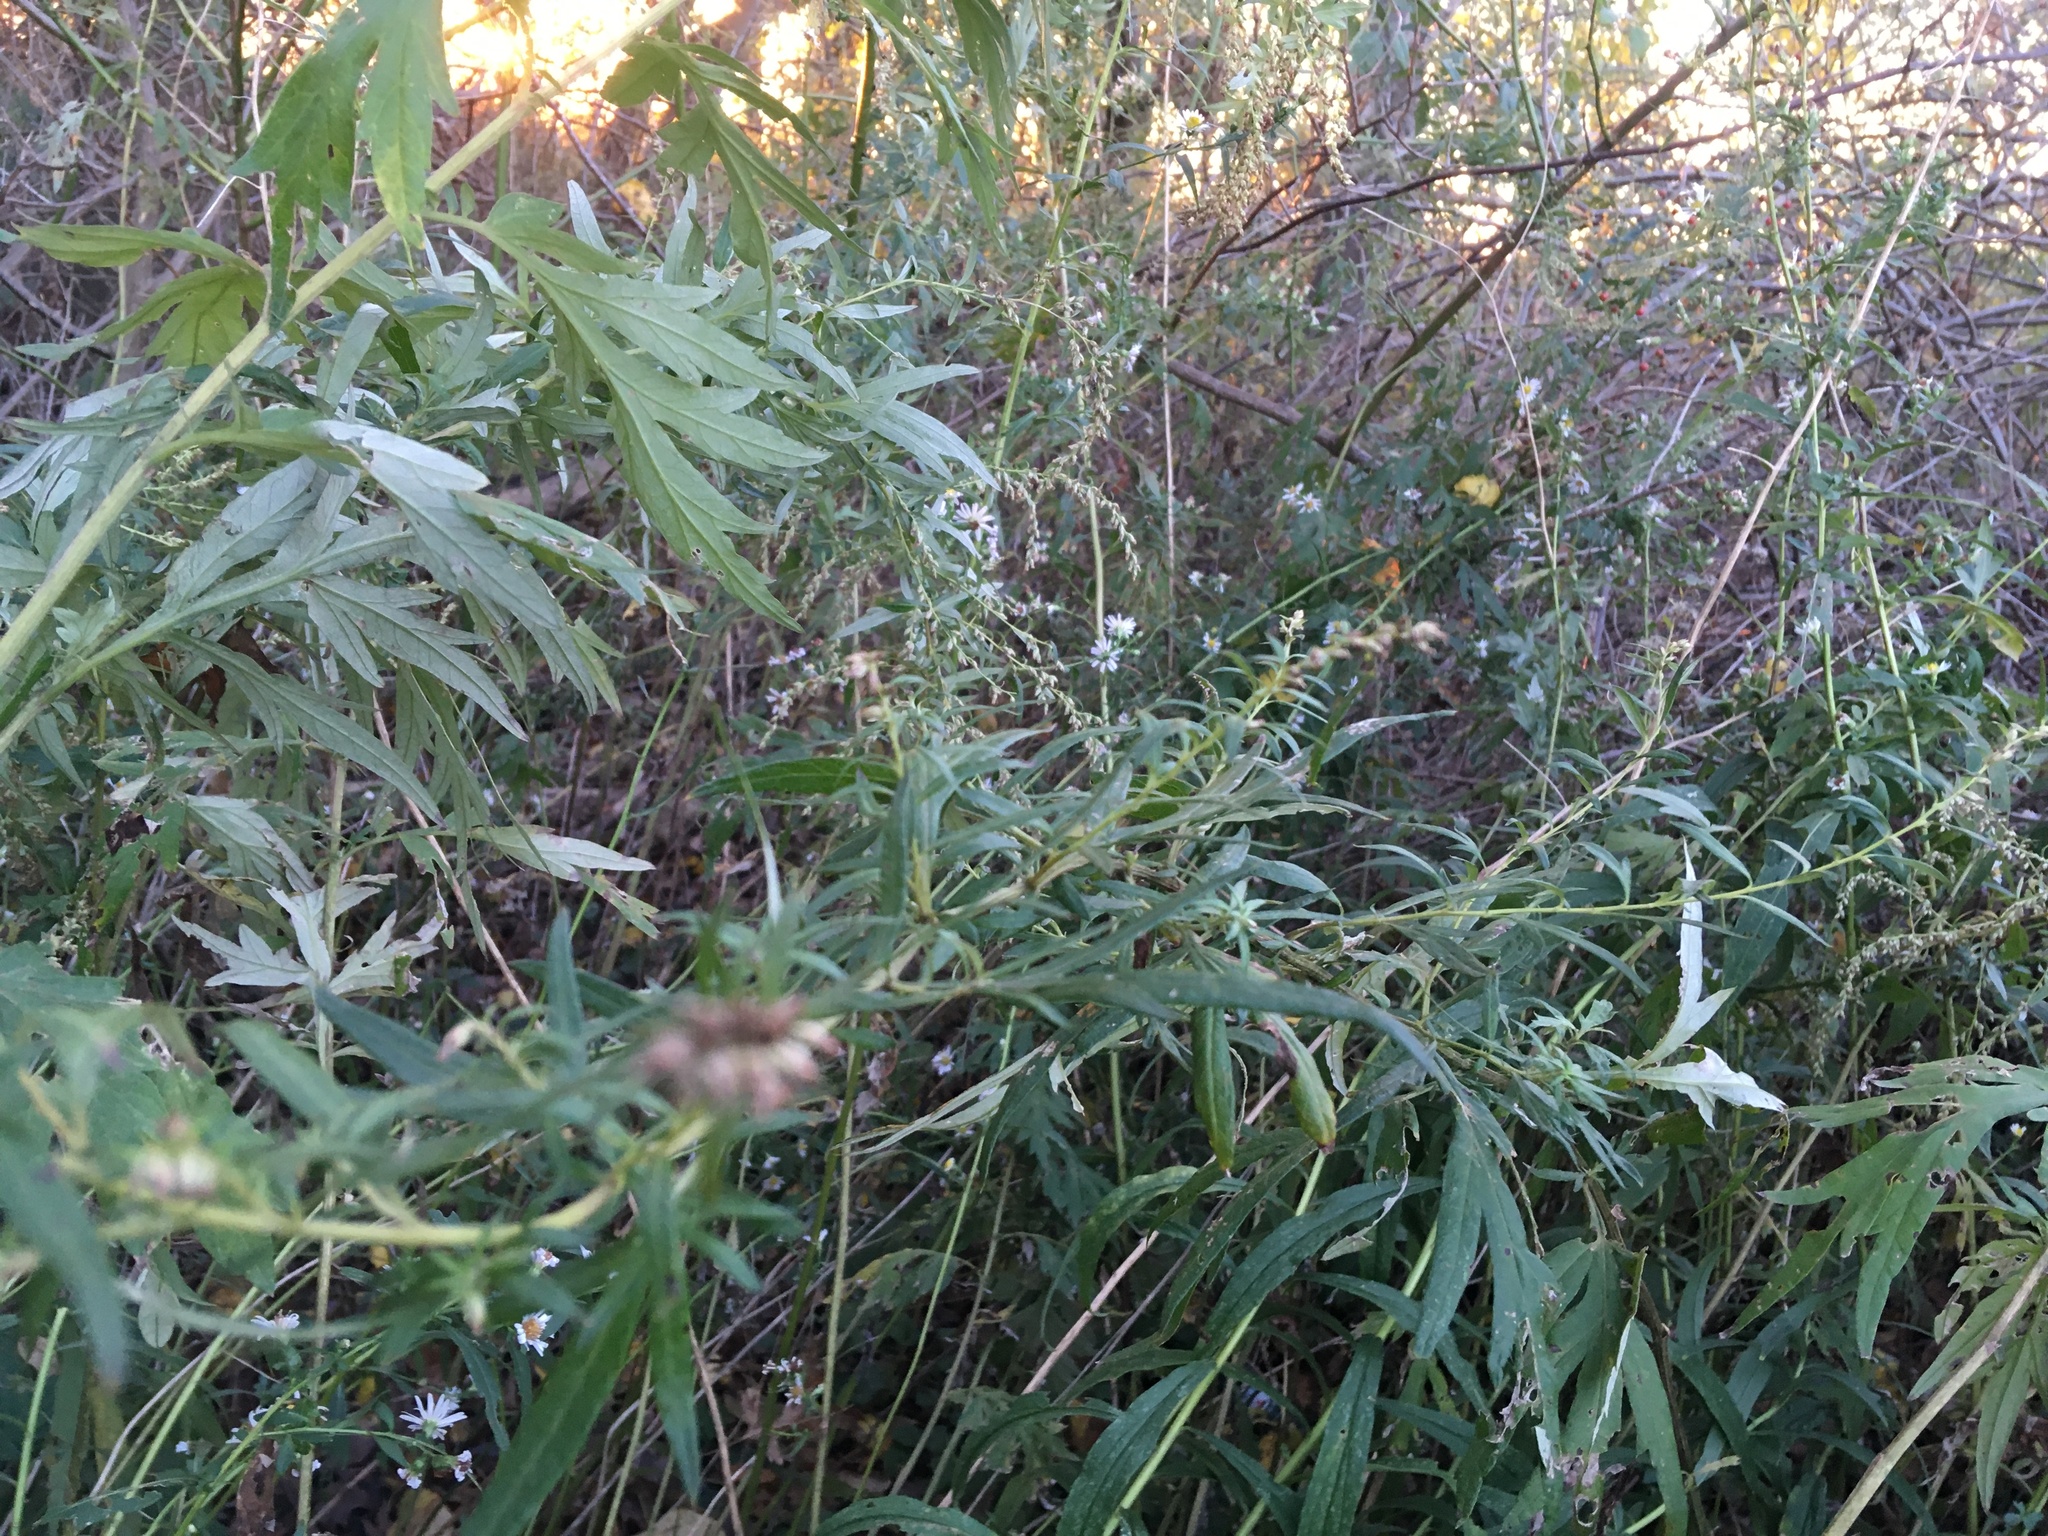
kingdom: Plantae
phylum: Tracheophyta
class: Magnoliopsida
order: Asterales
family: Asteraceae
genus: Artemisia
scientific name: Artemisia vulgaris
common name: Mugwort
